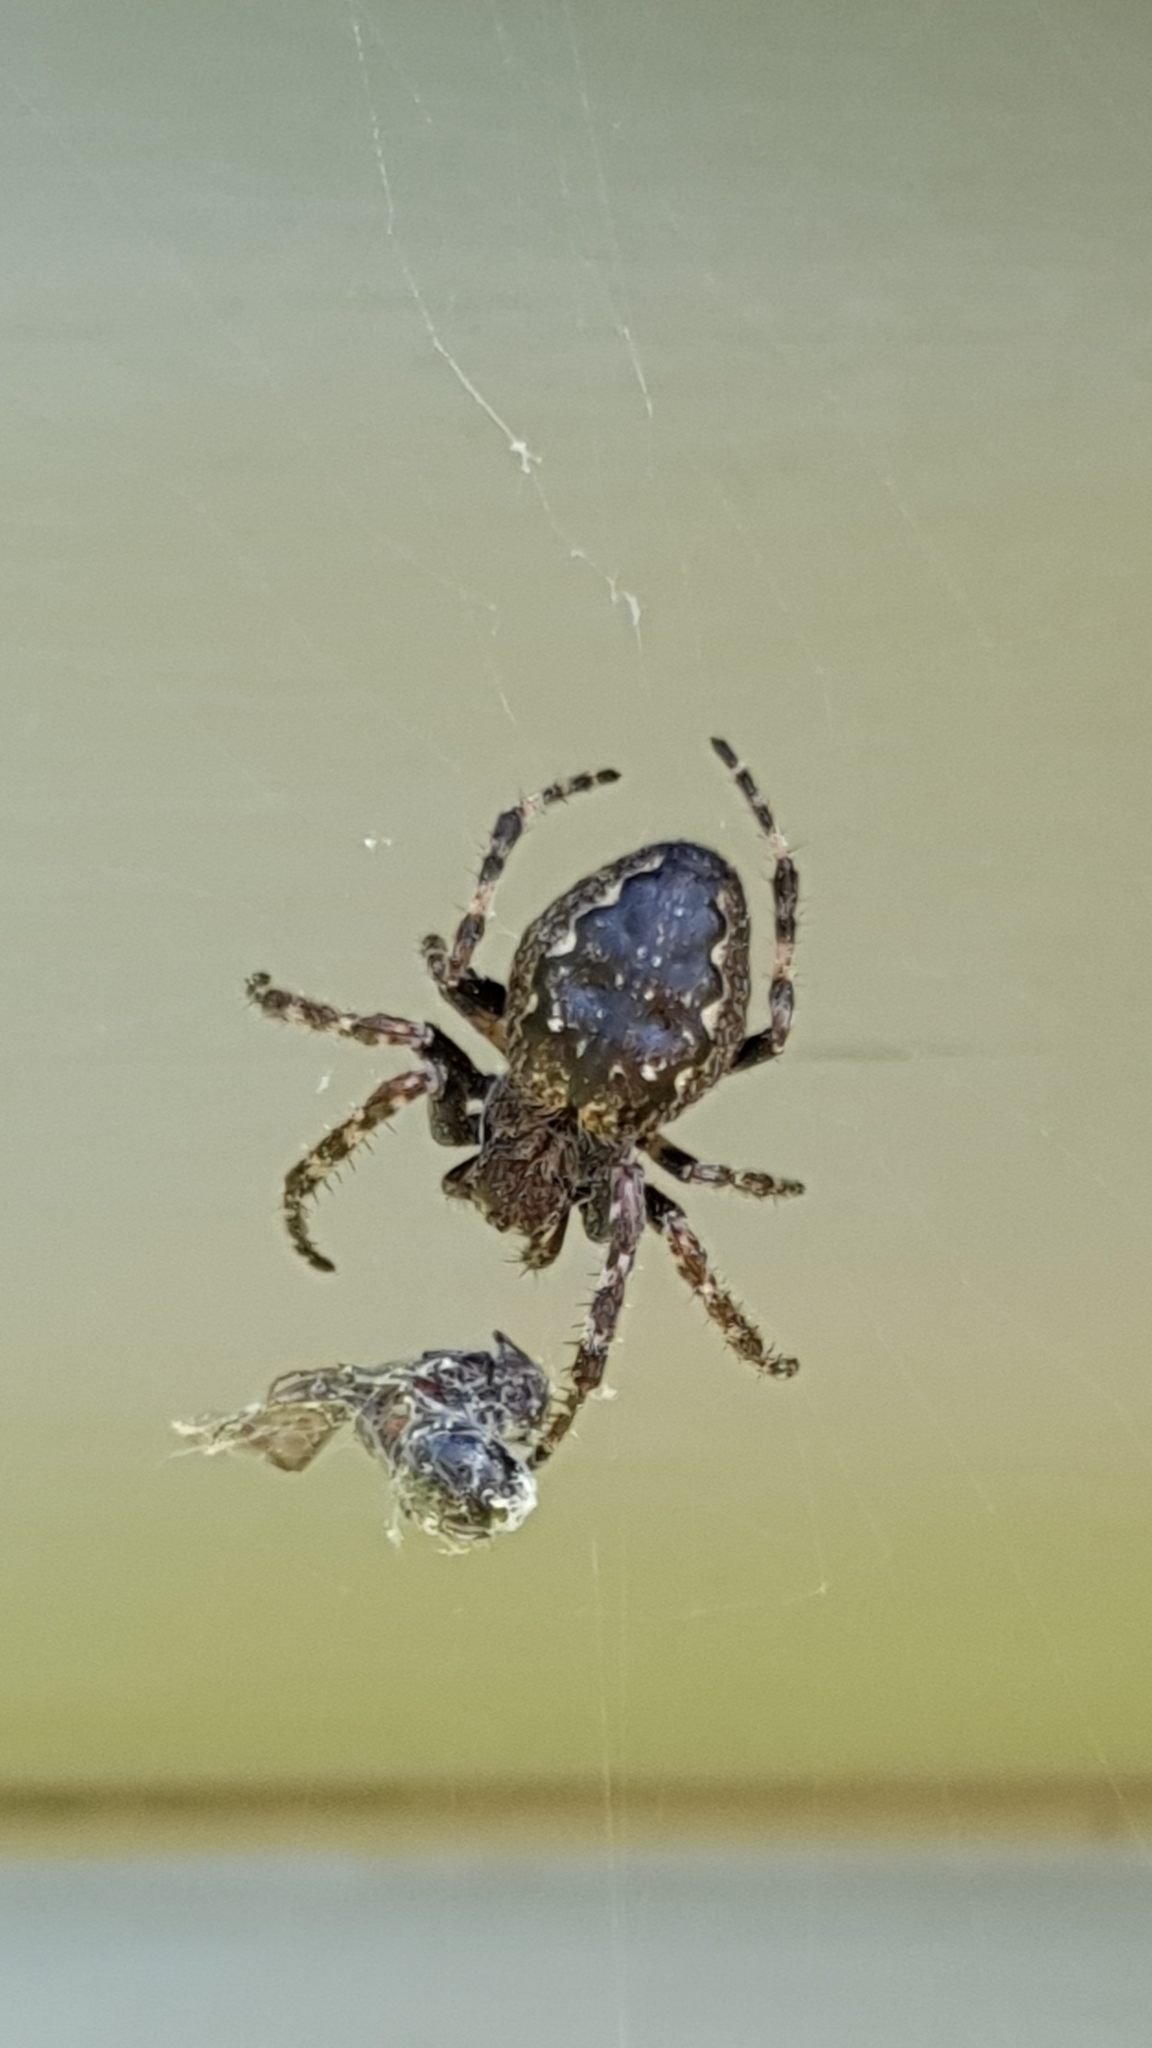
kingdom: Animalia
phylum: Arthropoda
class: Arachnida
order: Araneae
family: Araneidae
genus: Nuctenea
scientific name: Nuctenea umbratica
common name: Toad spider
